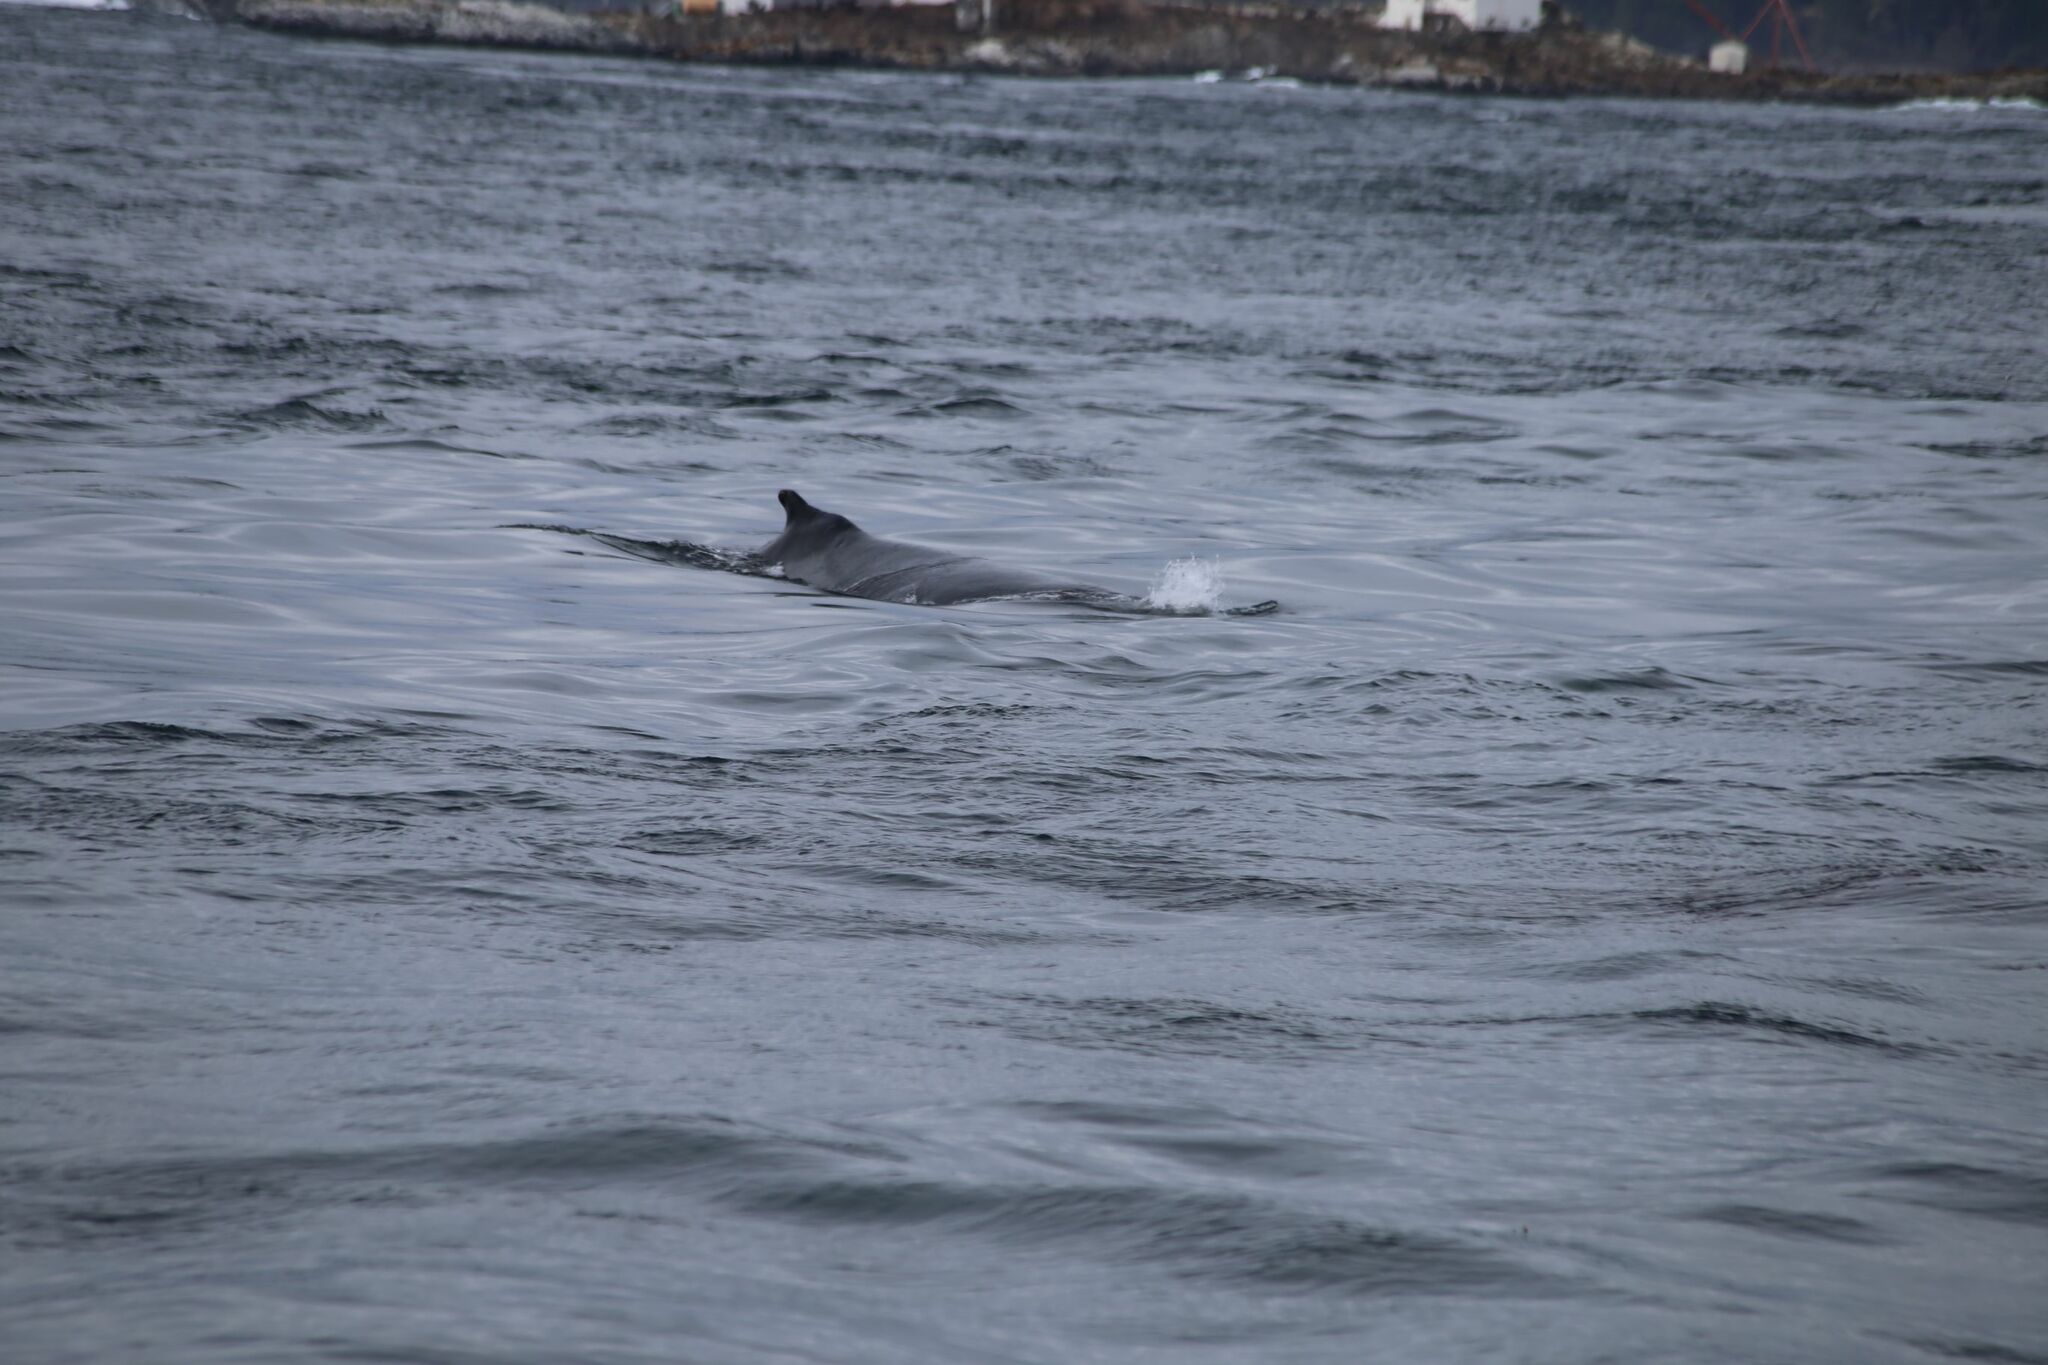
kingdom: Animalia
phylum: Chordata
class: Mammalia
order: Cetacea
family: Balaenopteridae
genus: Megaptera
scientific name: Megaptera novaeangliae
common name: Humpback whale
